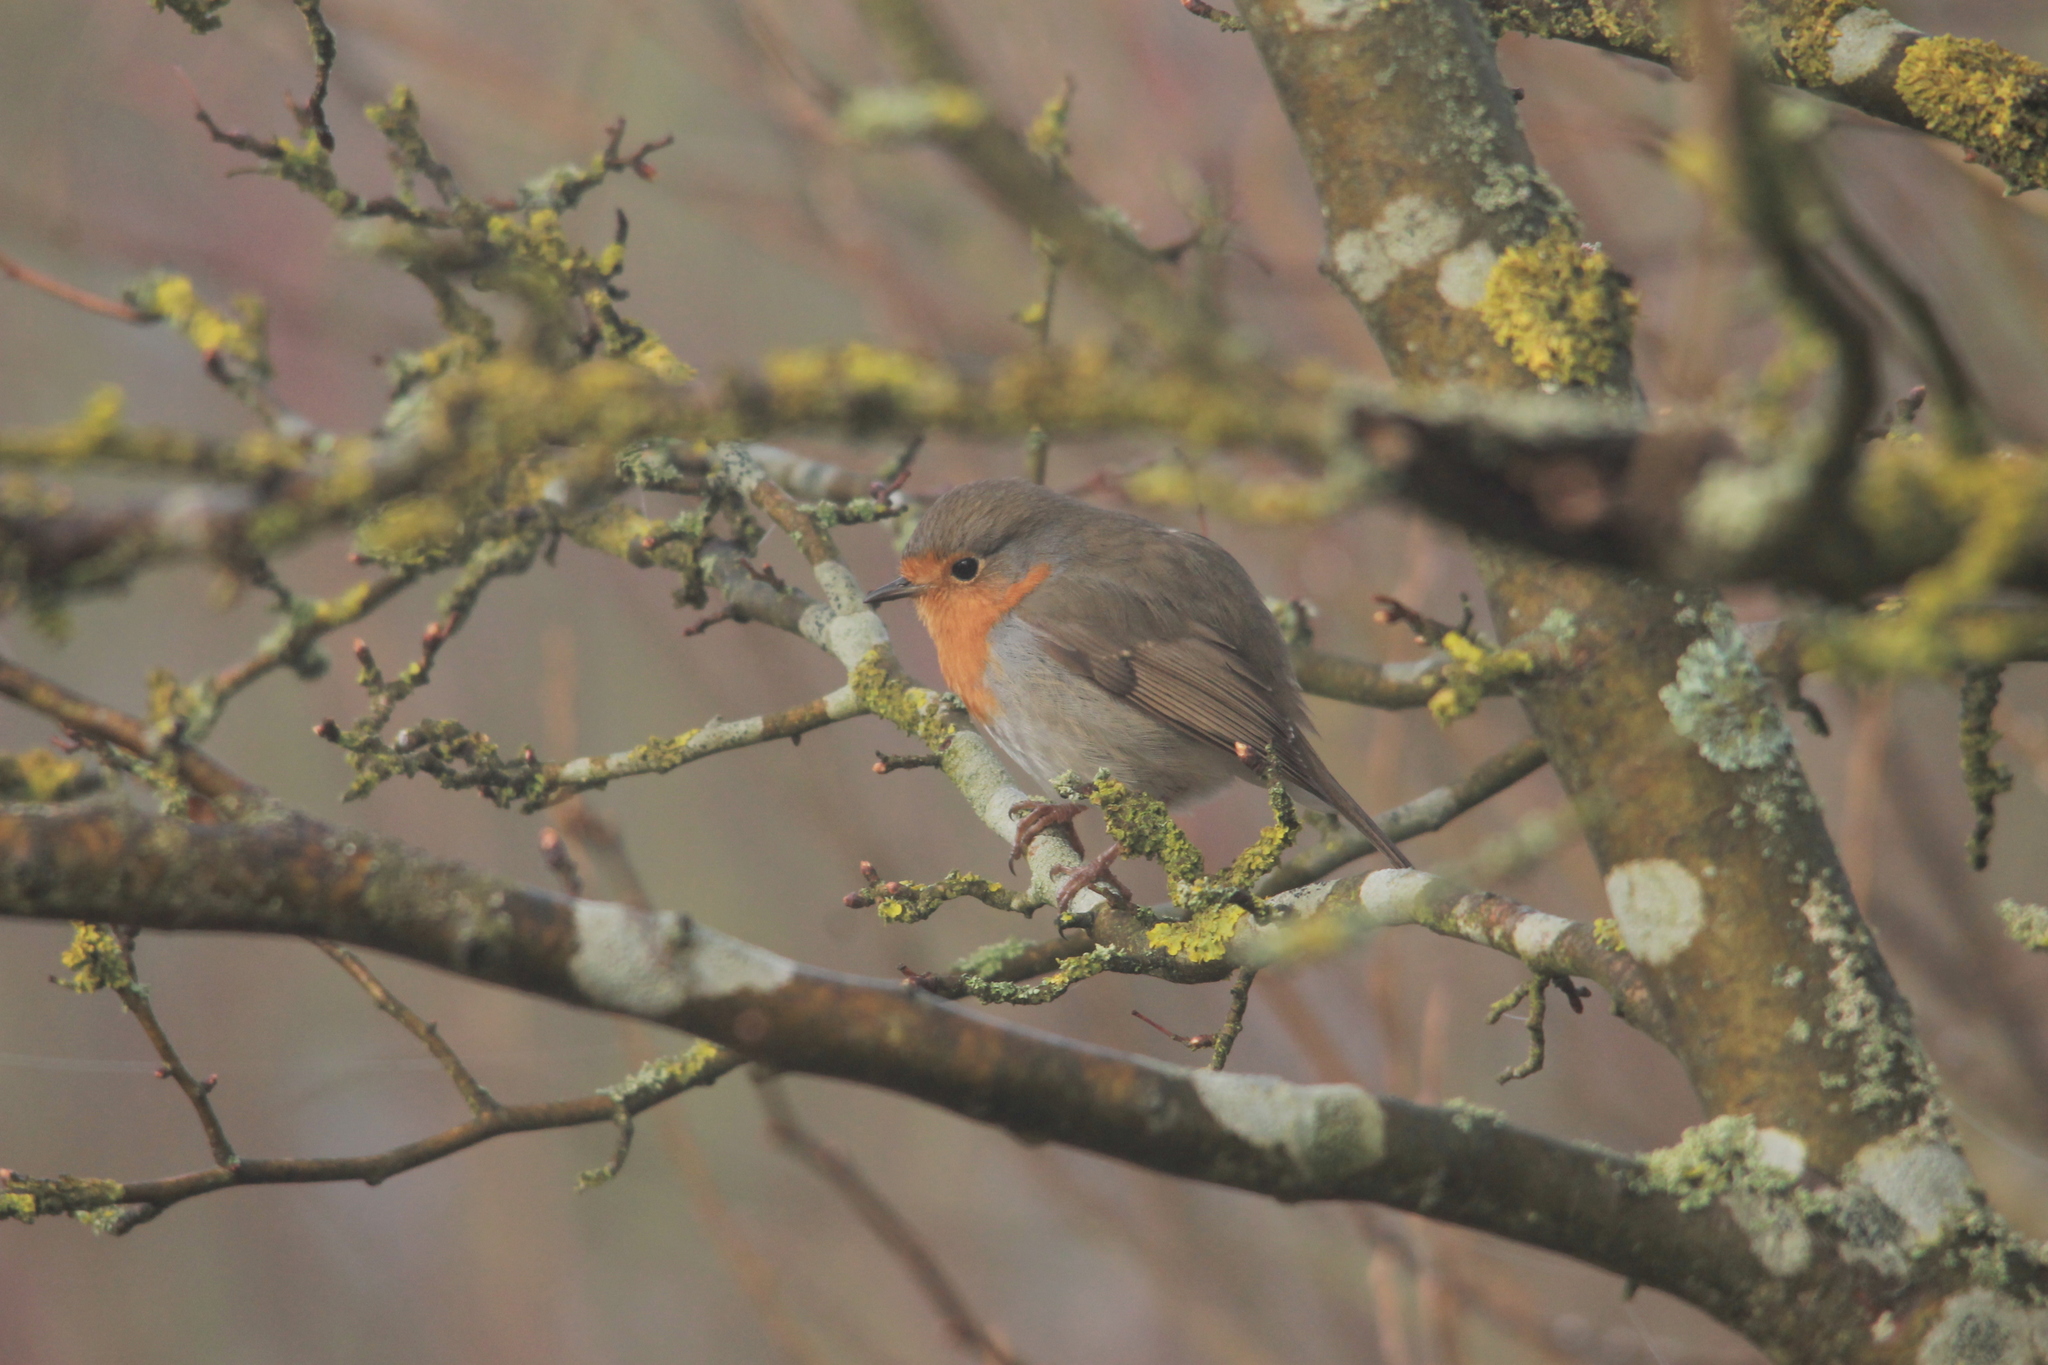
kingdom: Animalia
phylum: Chordata
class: Aves
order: Passeriformes
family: Muscicapidae
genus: Erithacus
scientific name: Erithacus rubecula
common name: European robin
